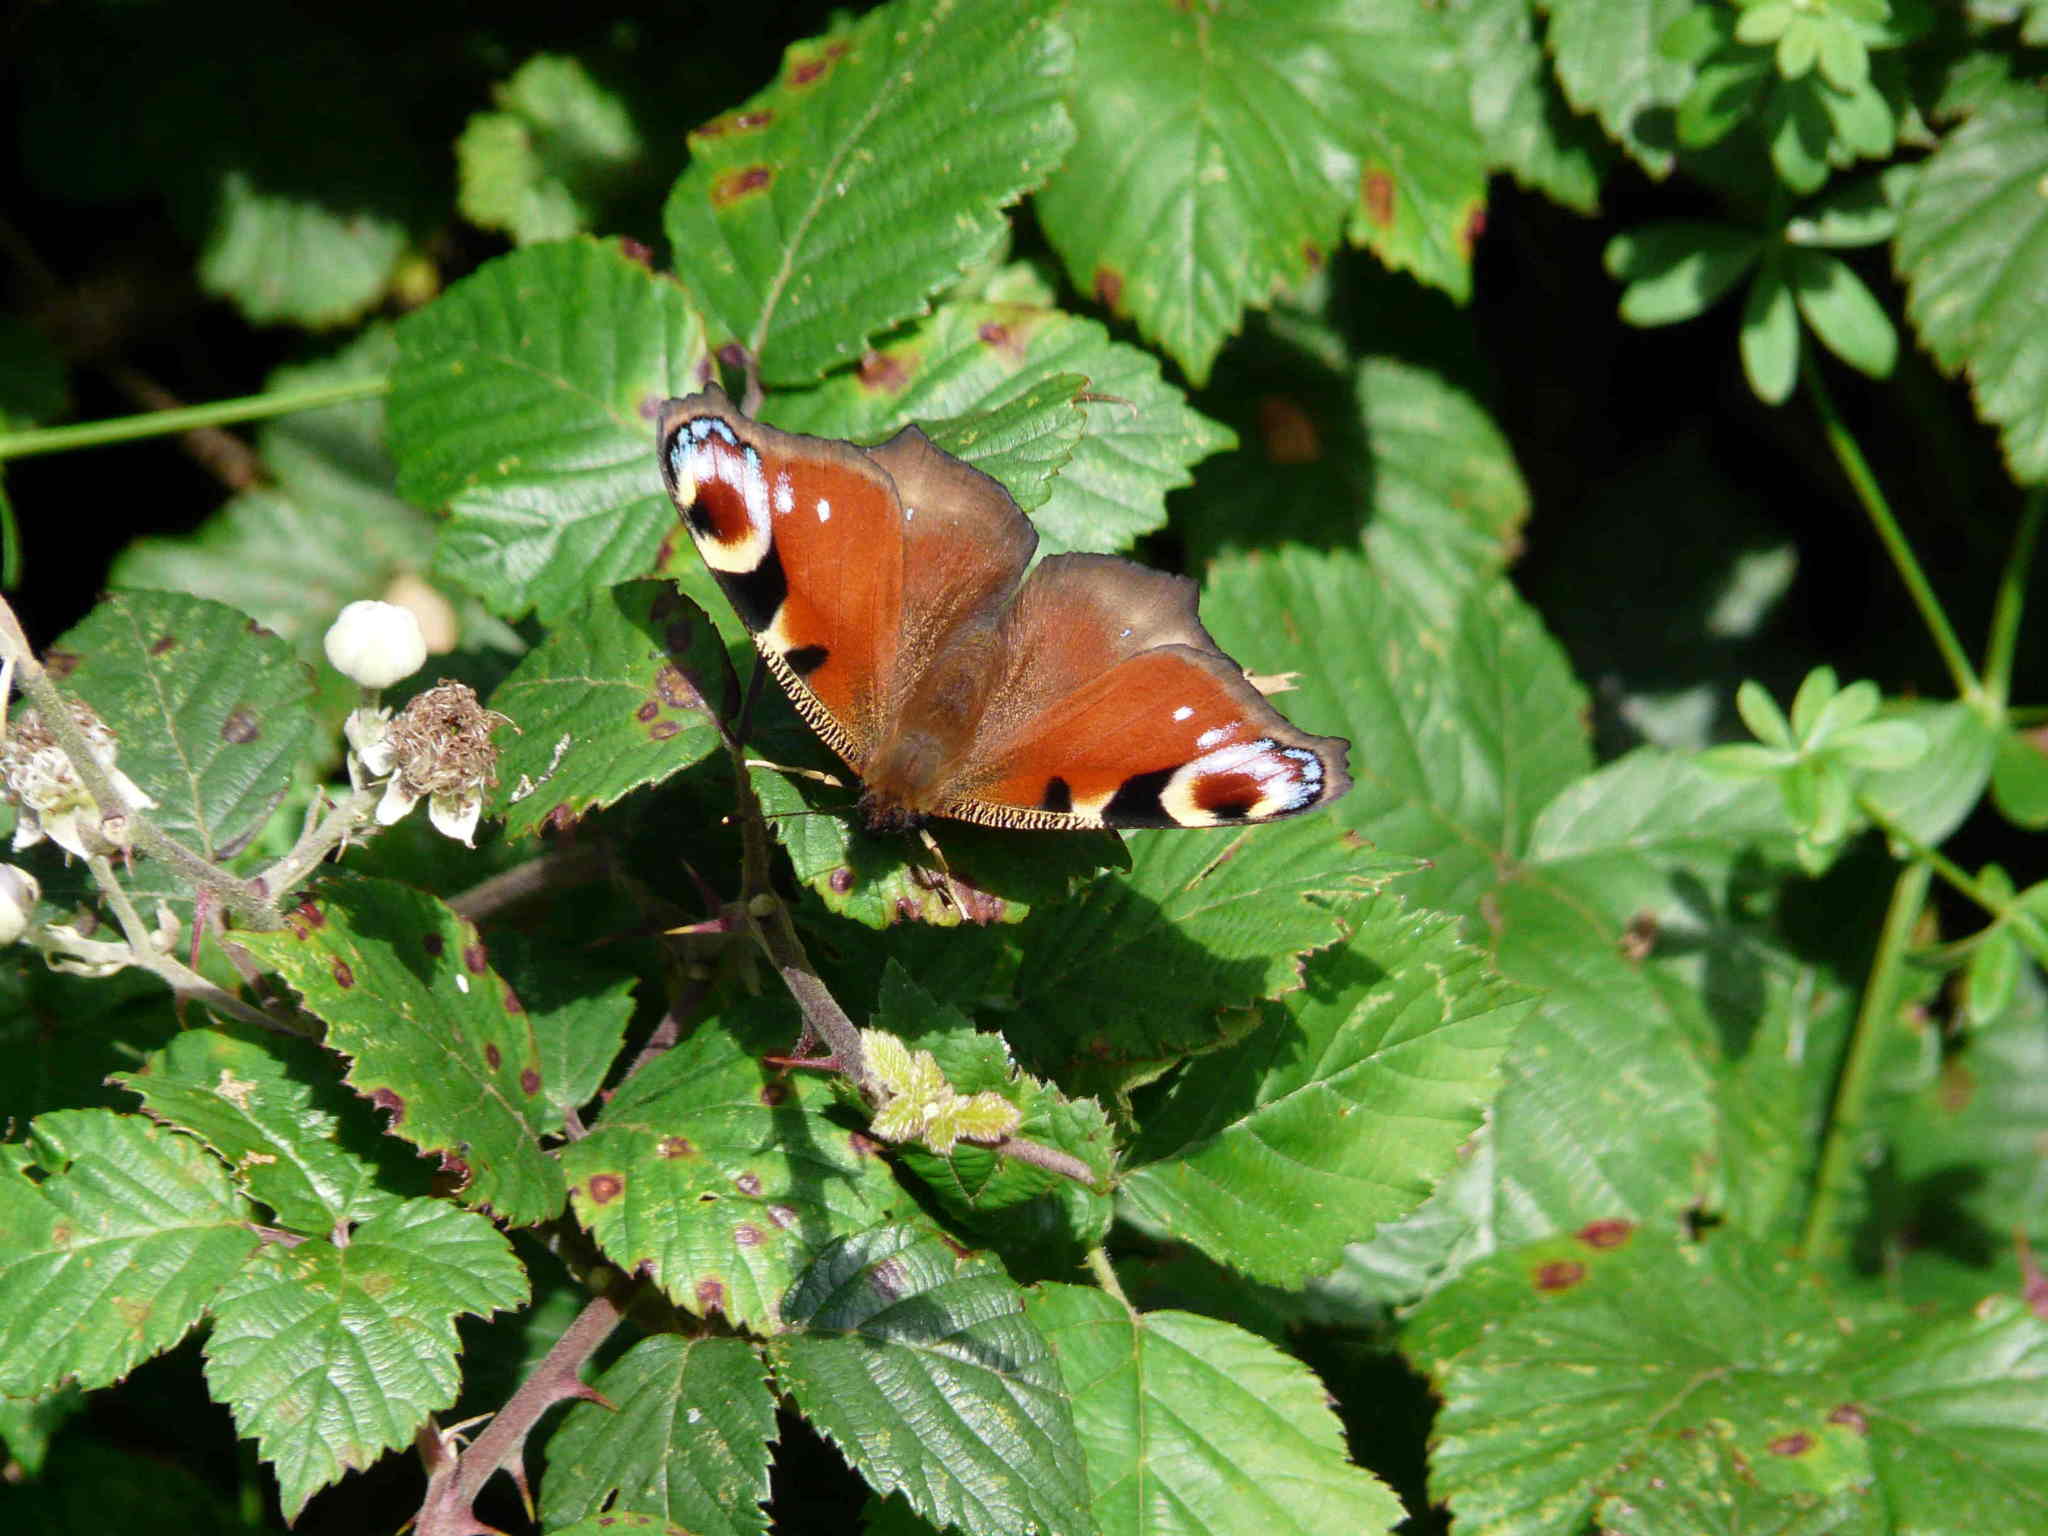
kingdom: Animalia
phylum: Arthropoda
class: Insecta
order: Lepidoptera
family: Nymphalidae
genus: Aglais
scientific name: Aglais io
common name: Peacock
